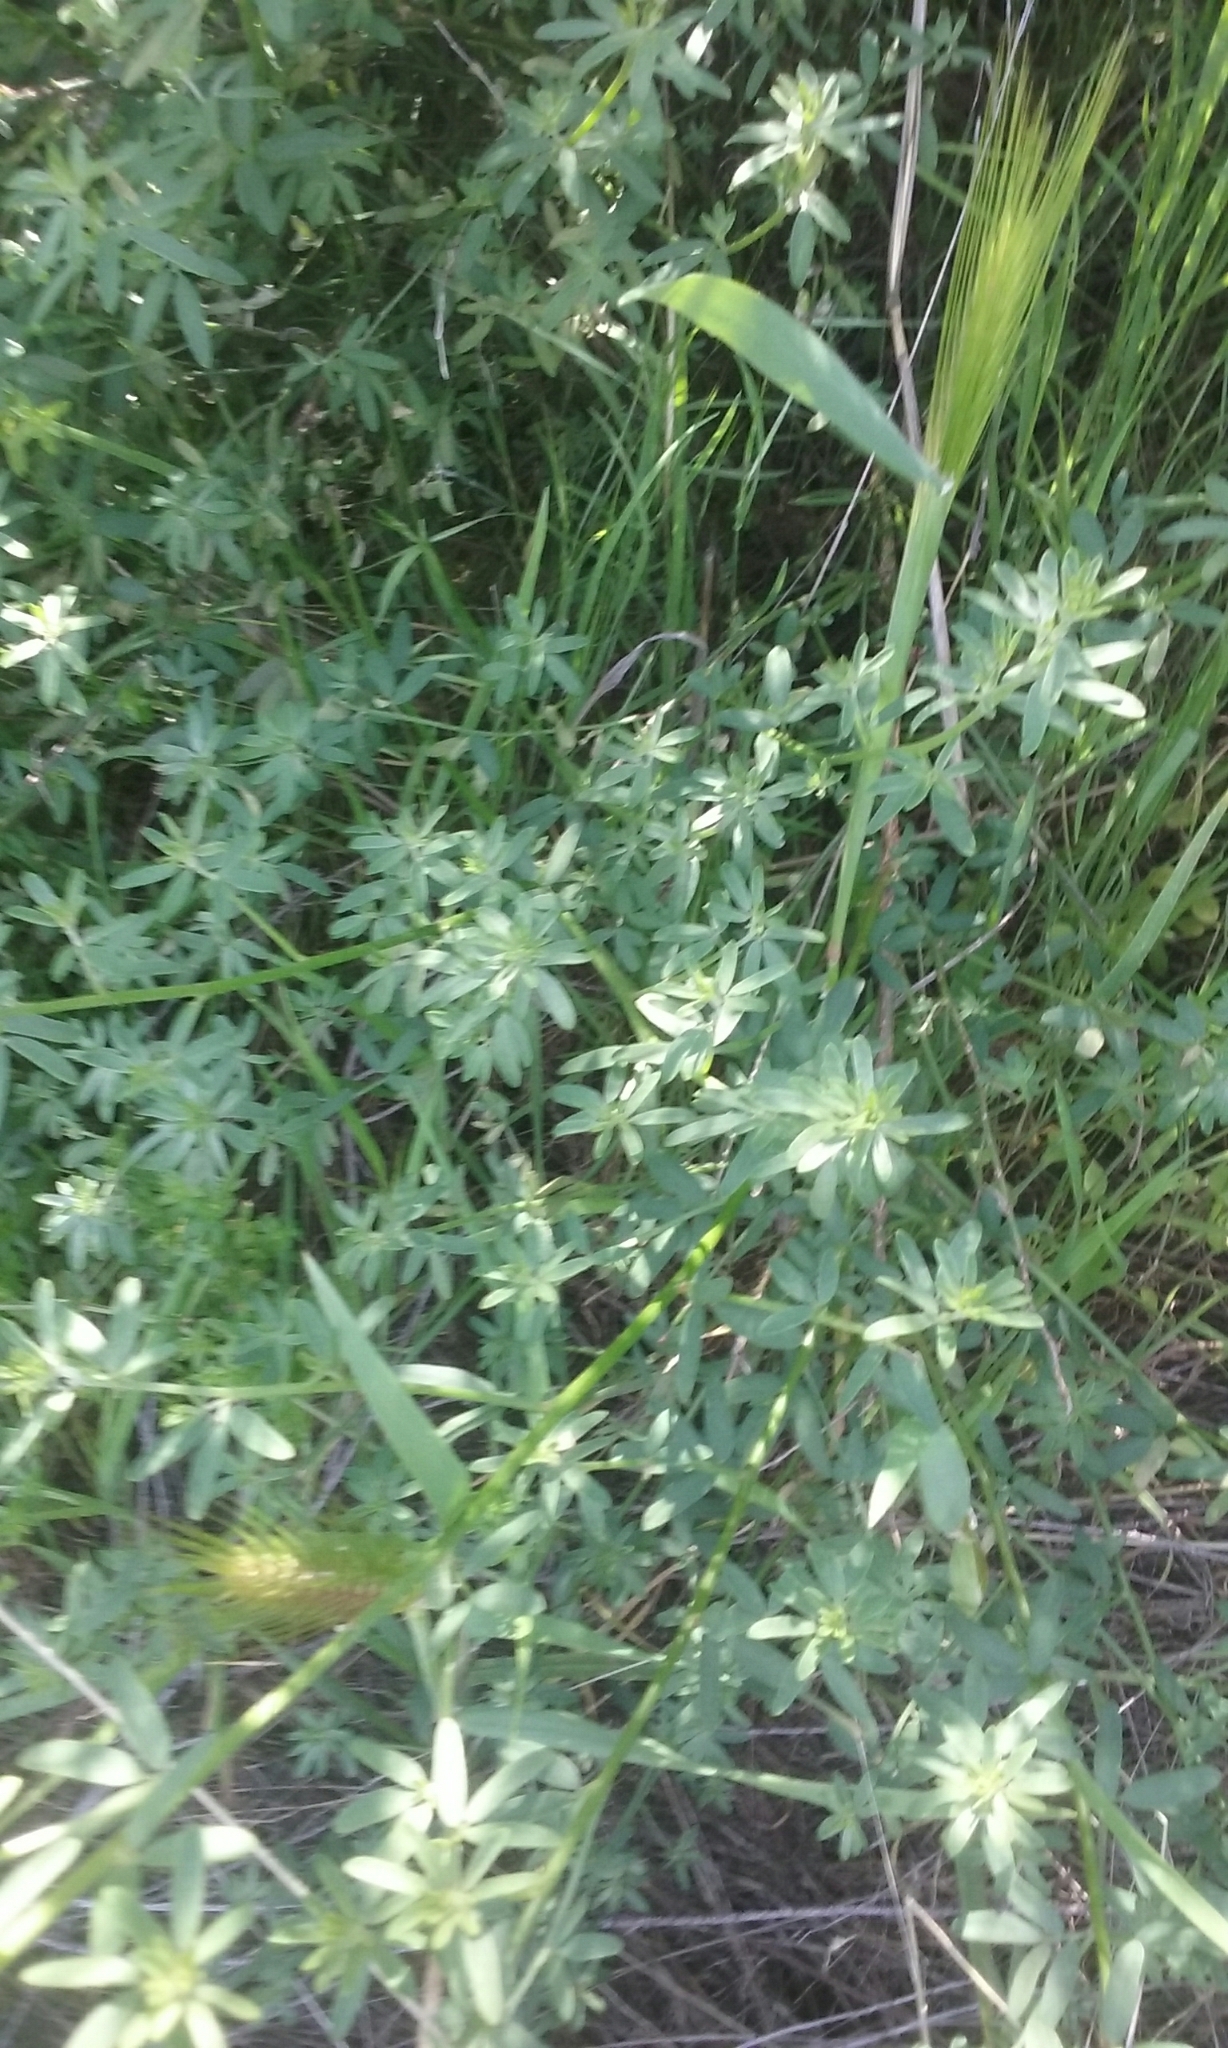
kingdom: Plantae
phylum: Tracheophyta
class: Magnoliopsida
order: Fabales
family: Fabaceae
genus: Acmispon
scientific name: Acmispon glaber
